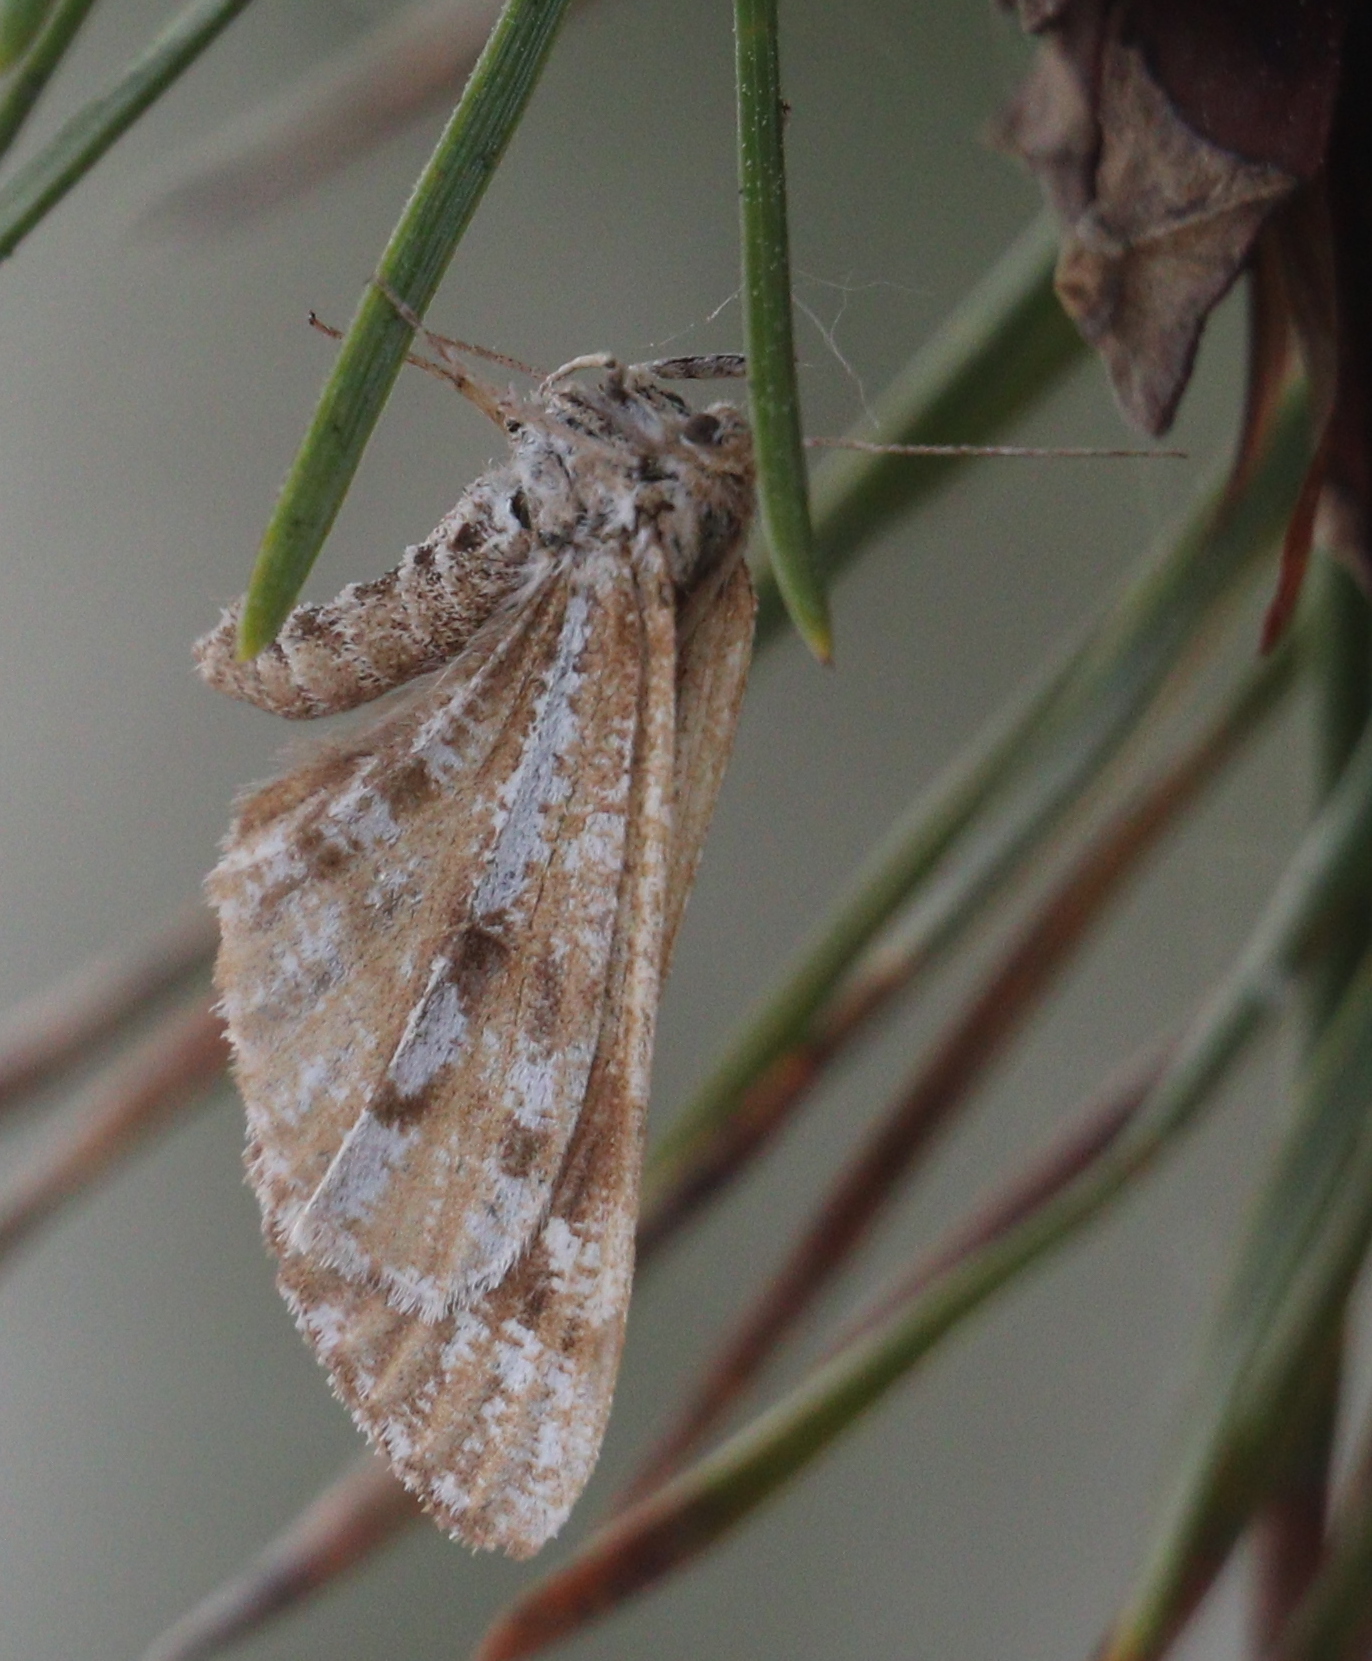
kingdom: Animalia
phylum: Arthropoda
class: Insecta
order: Lepidoptera
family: Geometridae
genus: Bupalus
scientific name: Bupalus piniaria
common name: Bordered white
